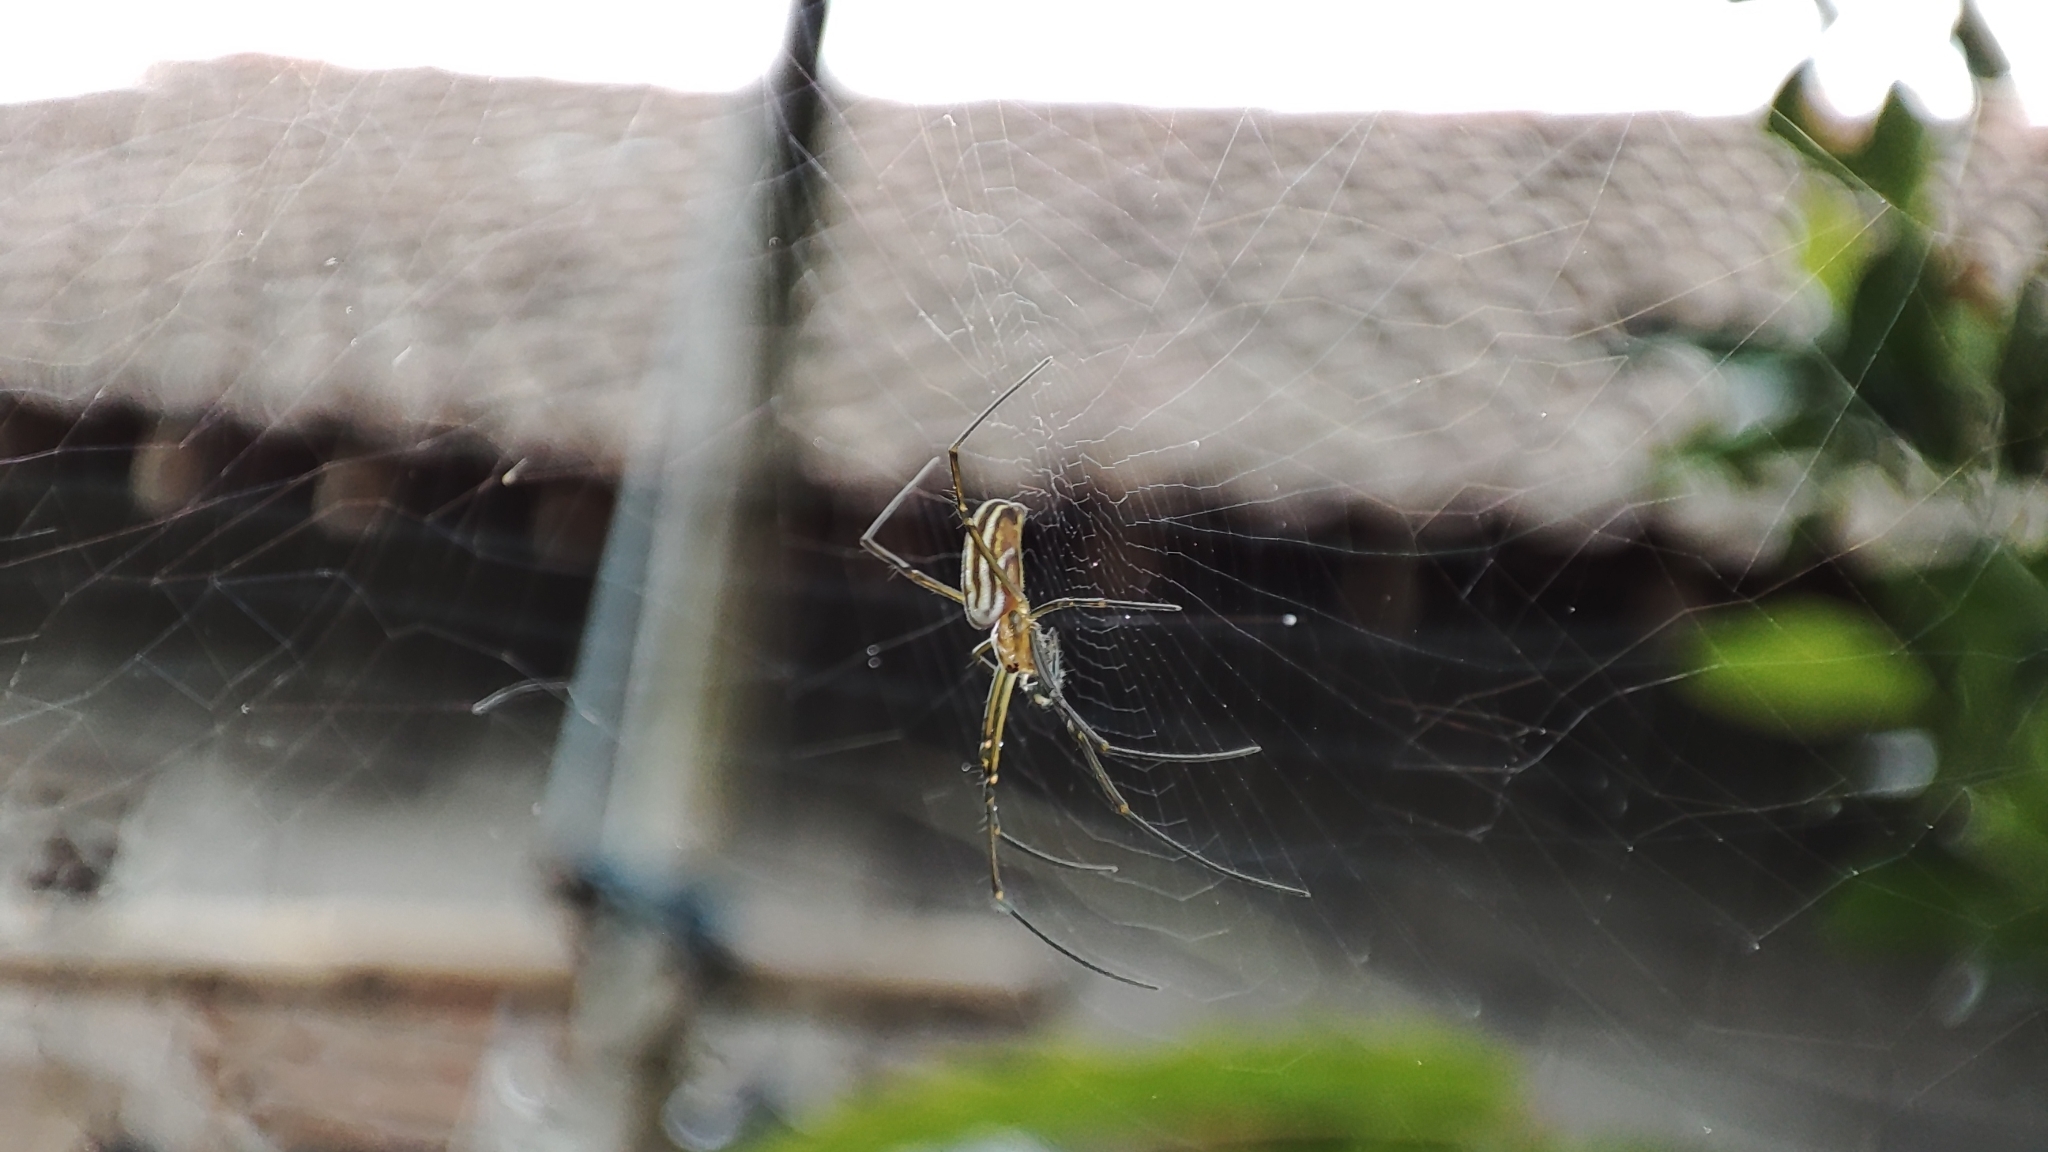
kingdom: Animalia
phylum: Arthropoda
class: Arachnida
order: Araneae
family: Araneidae
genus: Nephila
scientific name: Nephila pilipes
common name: Giant golden orb weaver
